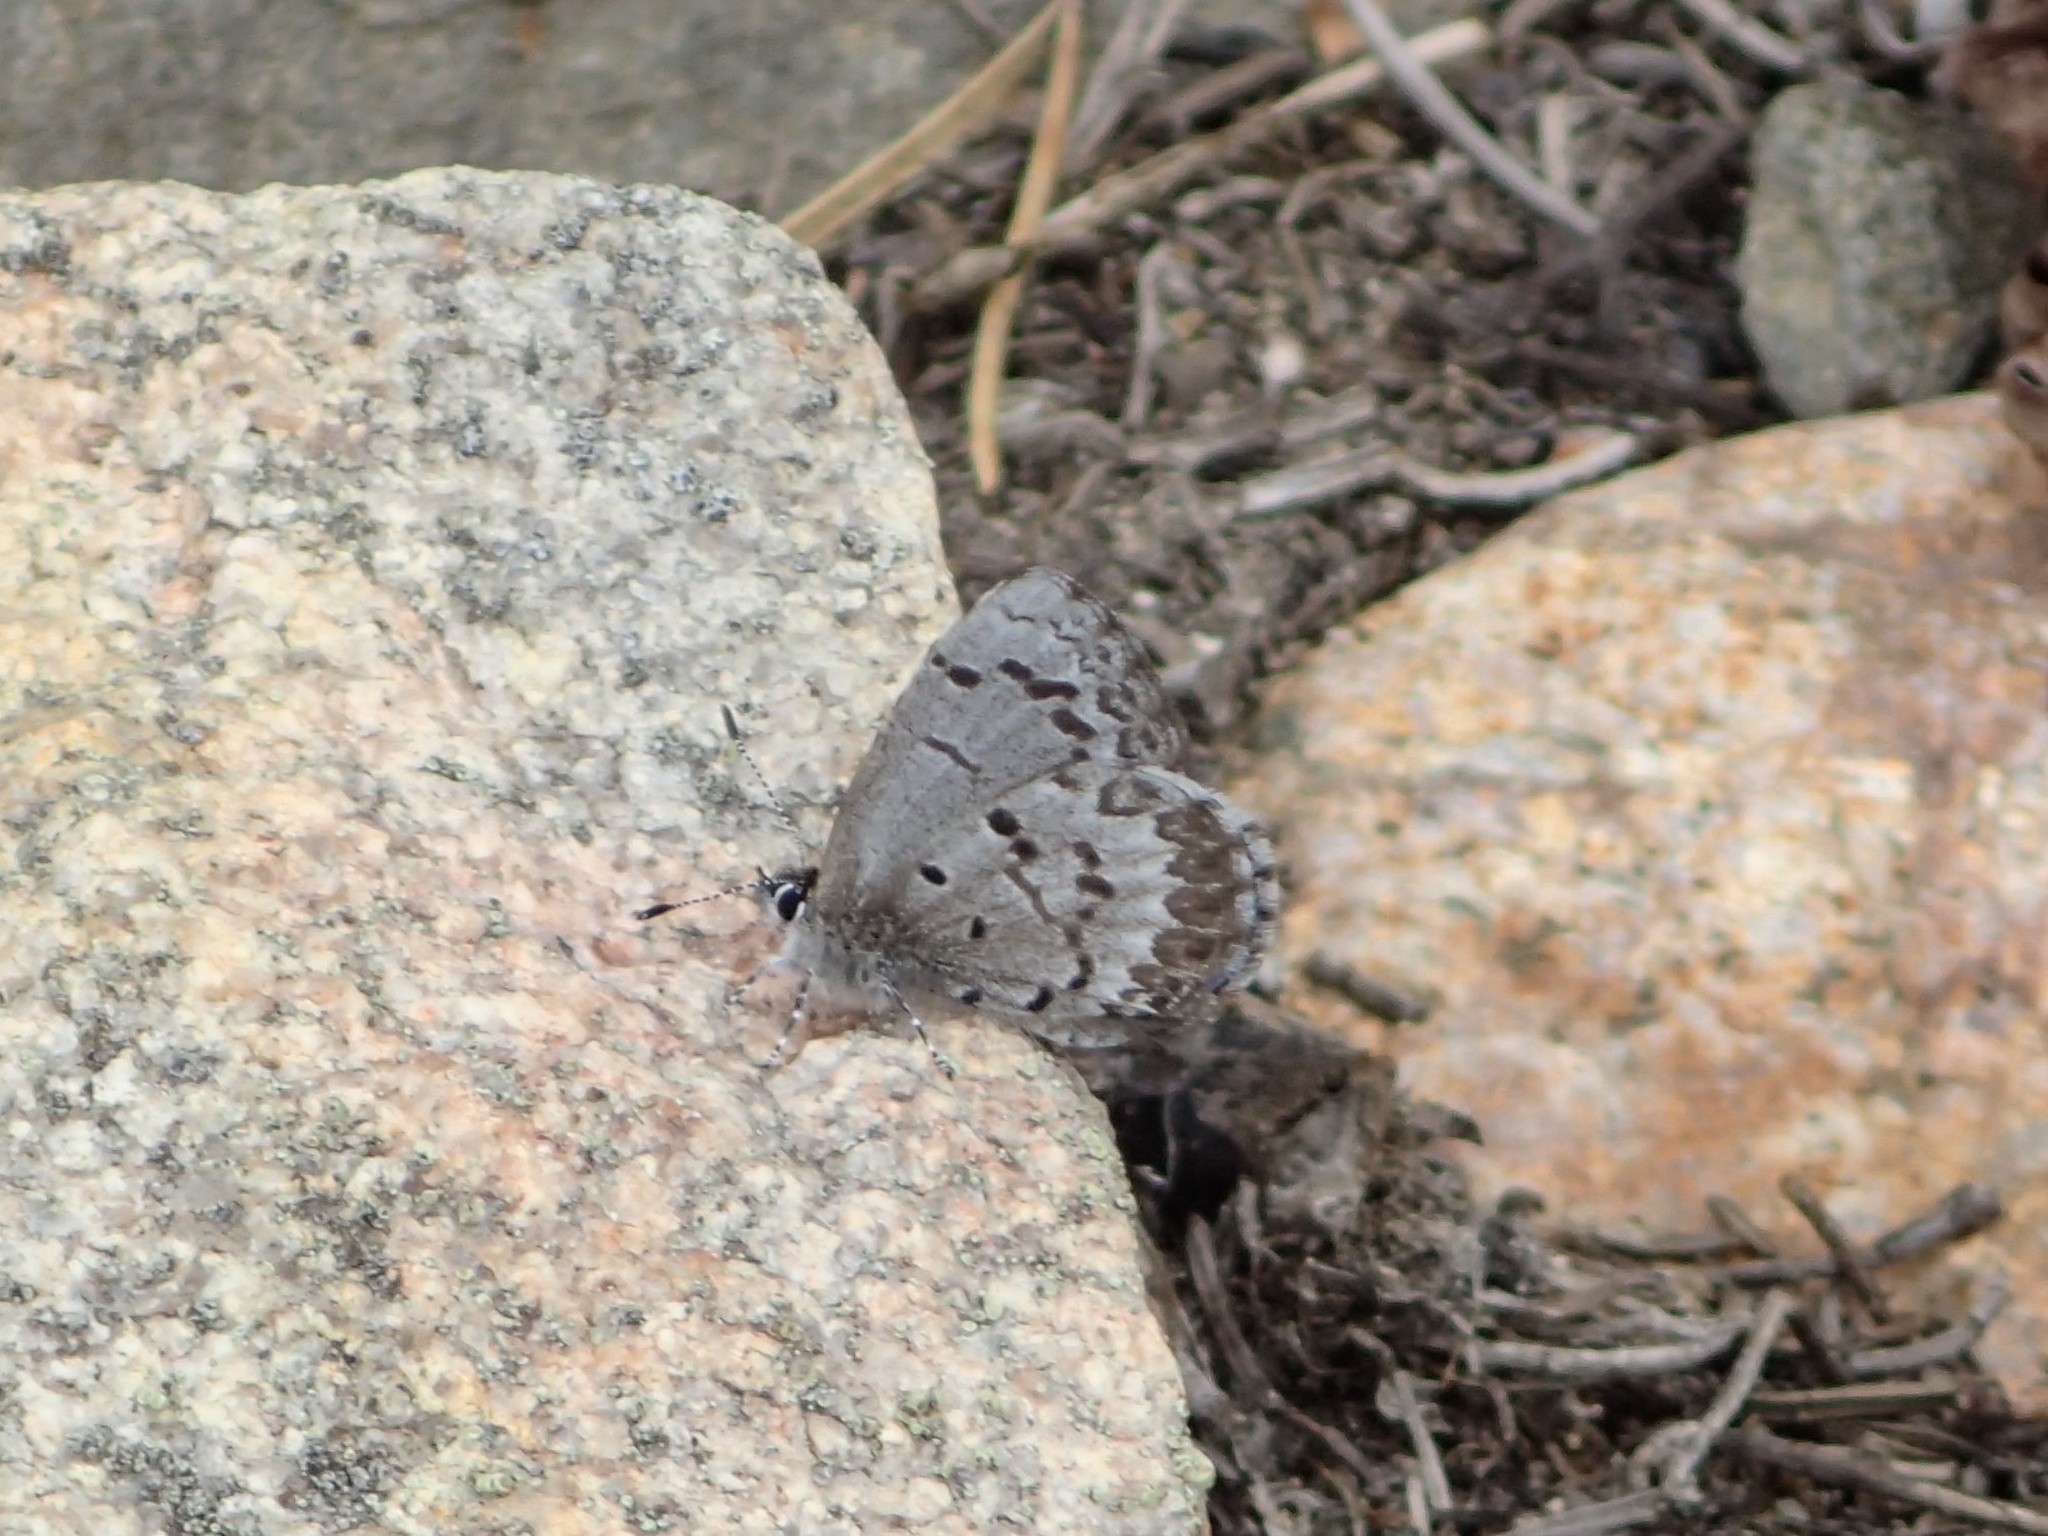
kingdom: Animalia
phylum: Arthropoda
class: Insecta
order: Lepidoptera
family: Lycaenidae
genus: Celastrina
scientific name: Celastrina lucia
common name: Lucia azure
